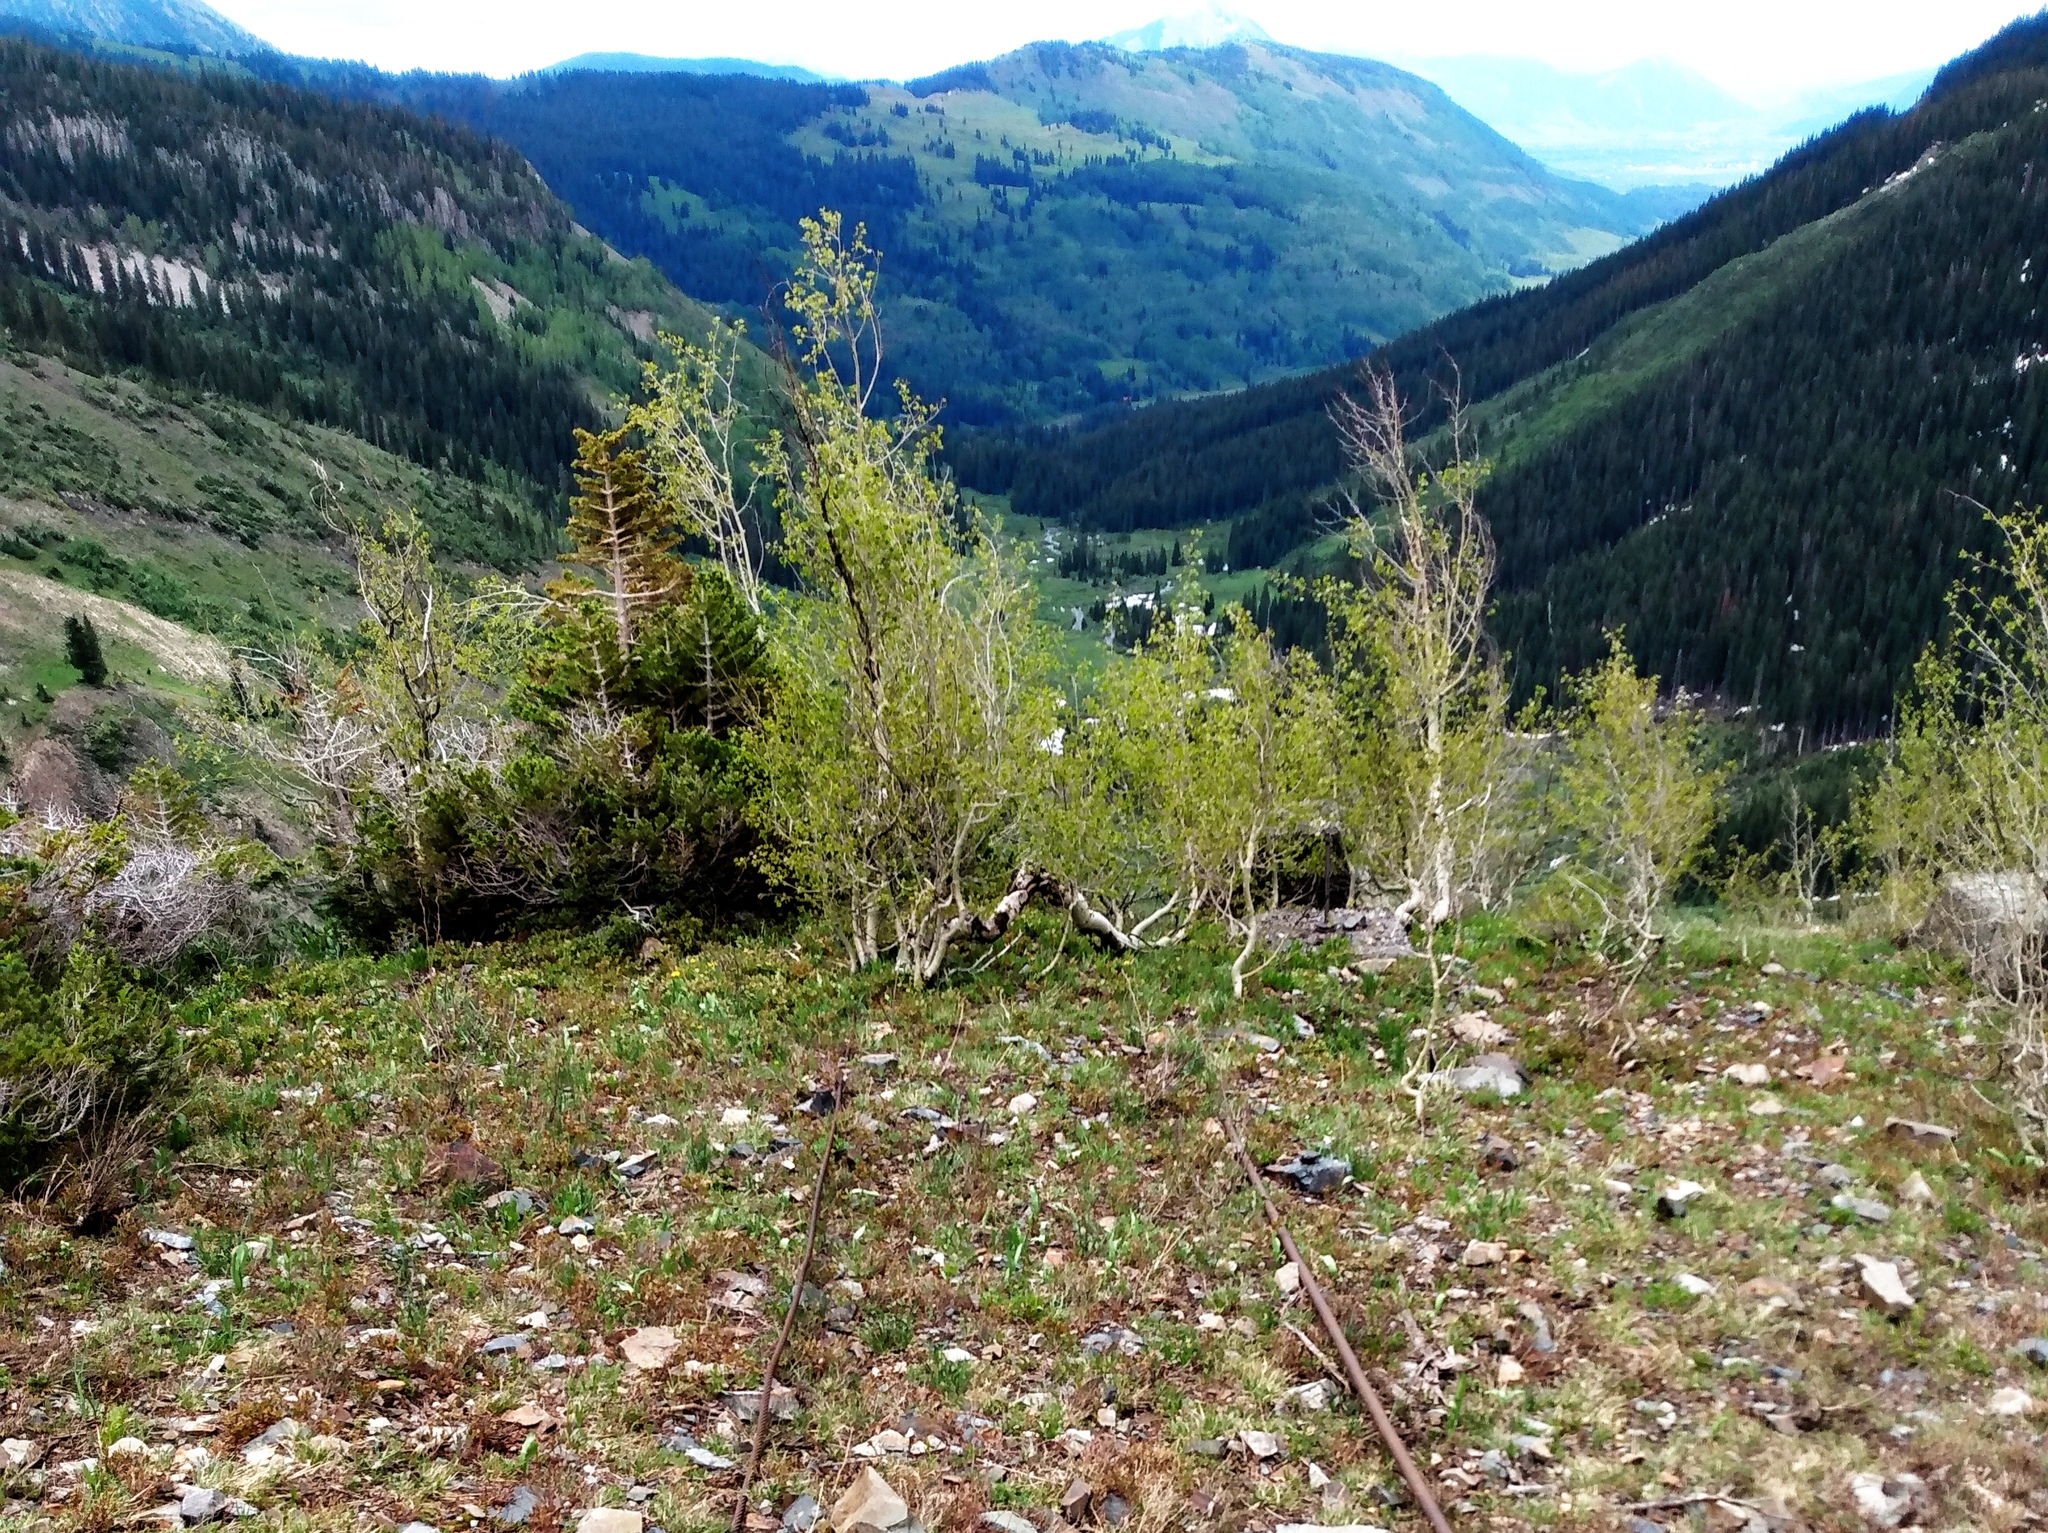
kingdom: Plantae
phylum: Tracheophyta
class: Magnoliopsida
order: Malpighiales
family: Salicaceae
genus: Populus
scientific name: Populus tremuloides
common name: Quaking aspen
